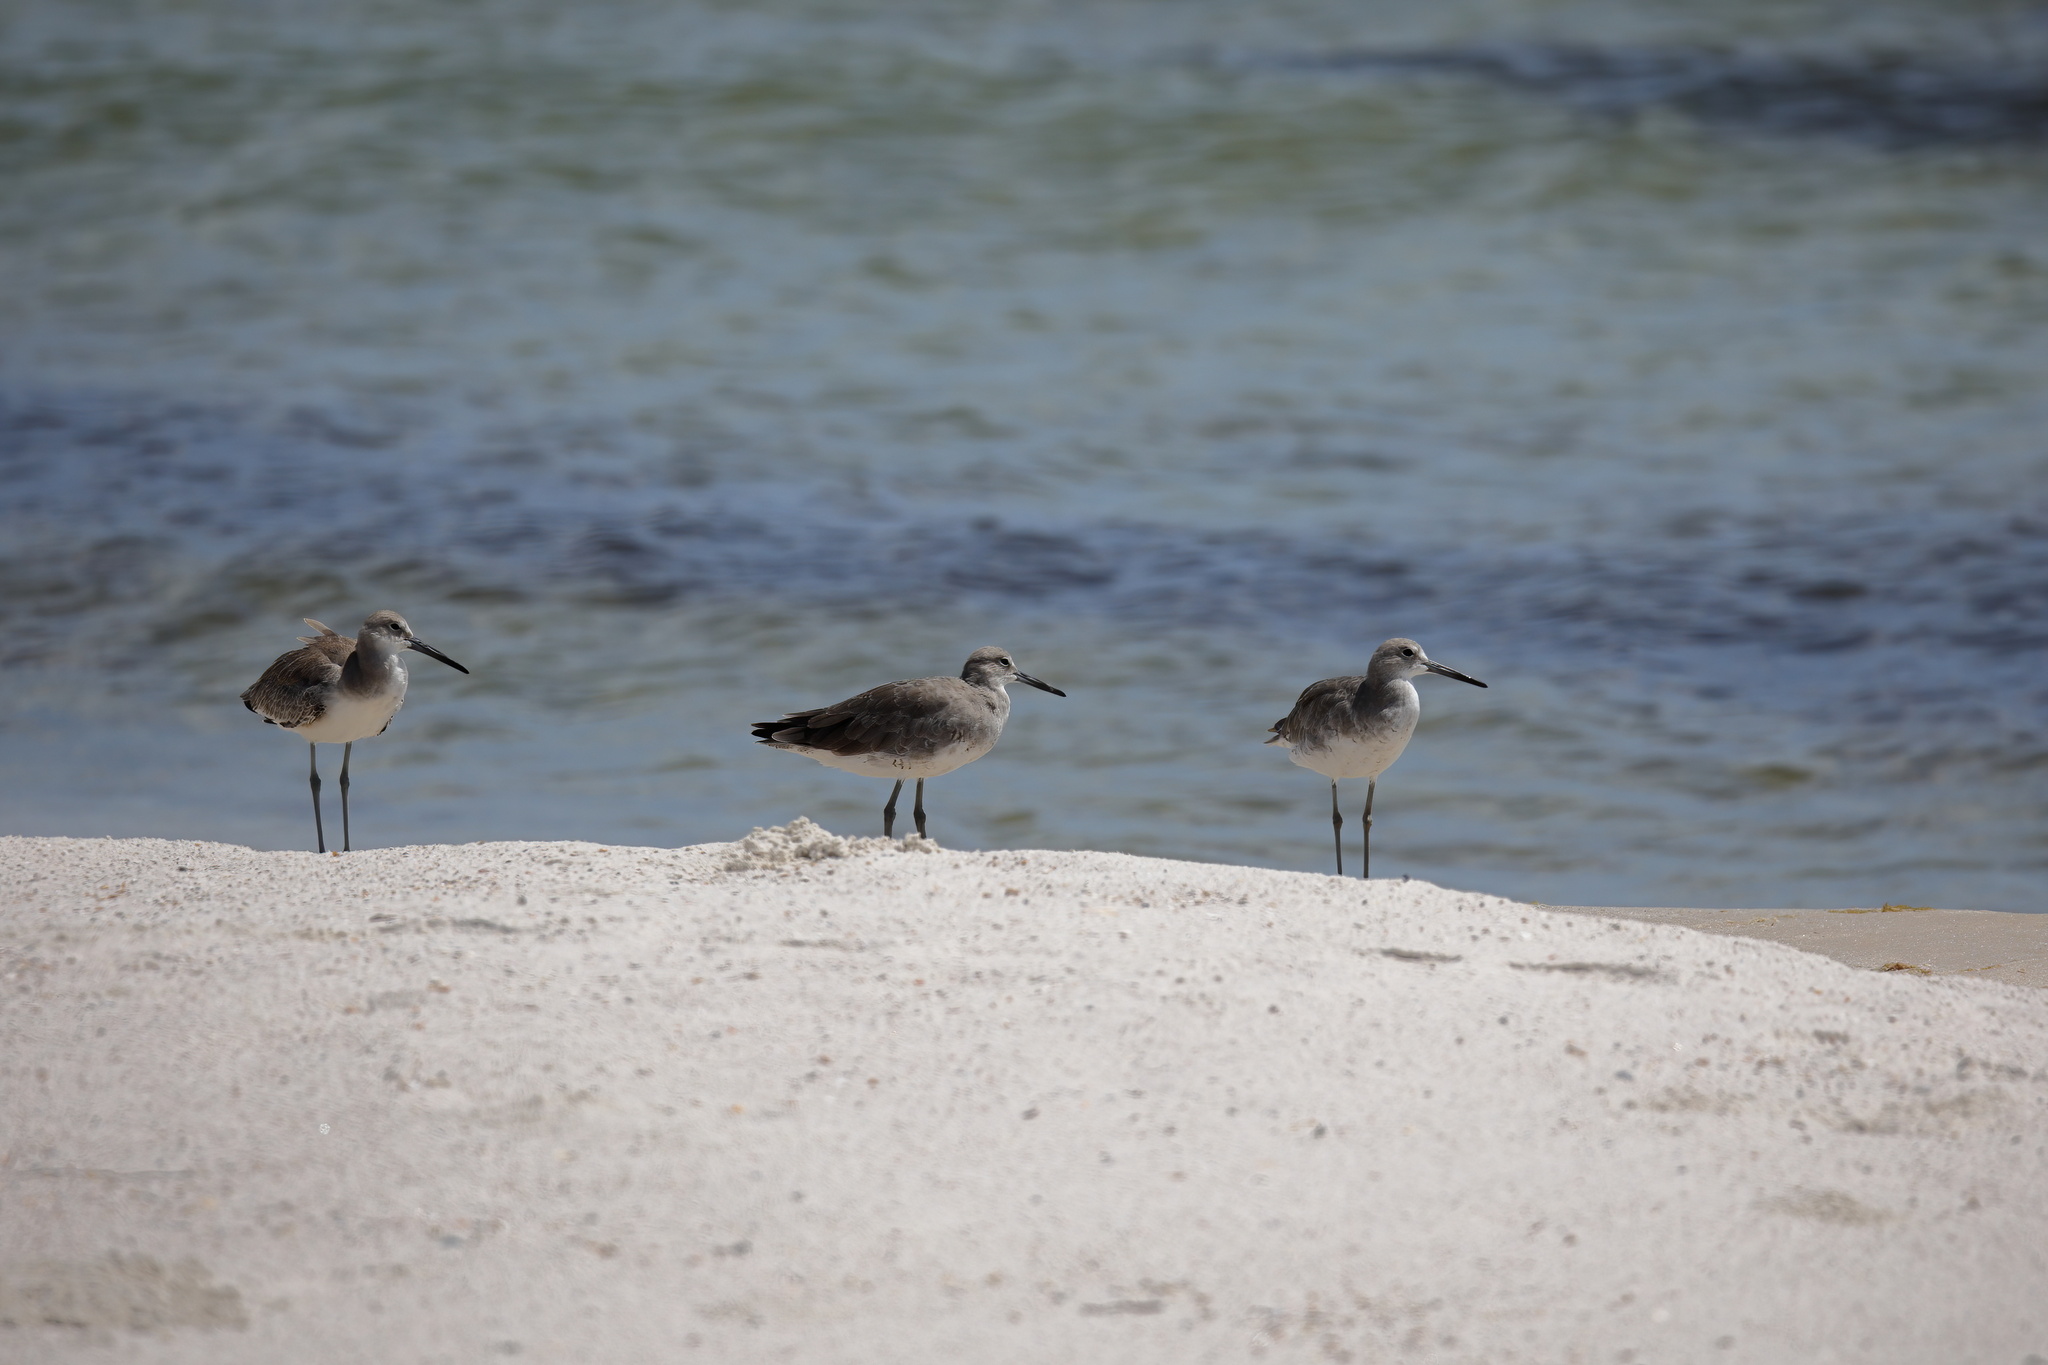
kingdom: Animalia
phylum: Chordata
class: Aves
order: Charadriiformes
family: Scolopacidae
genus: Tringa
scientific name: Tringa semipalmata
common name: Willet
